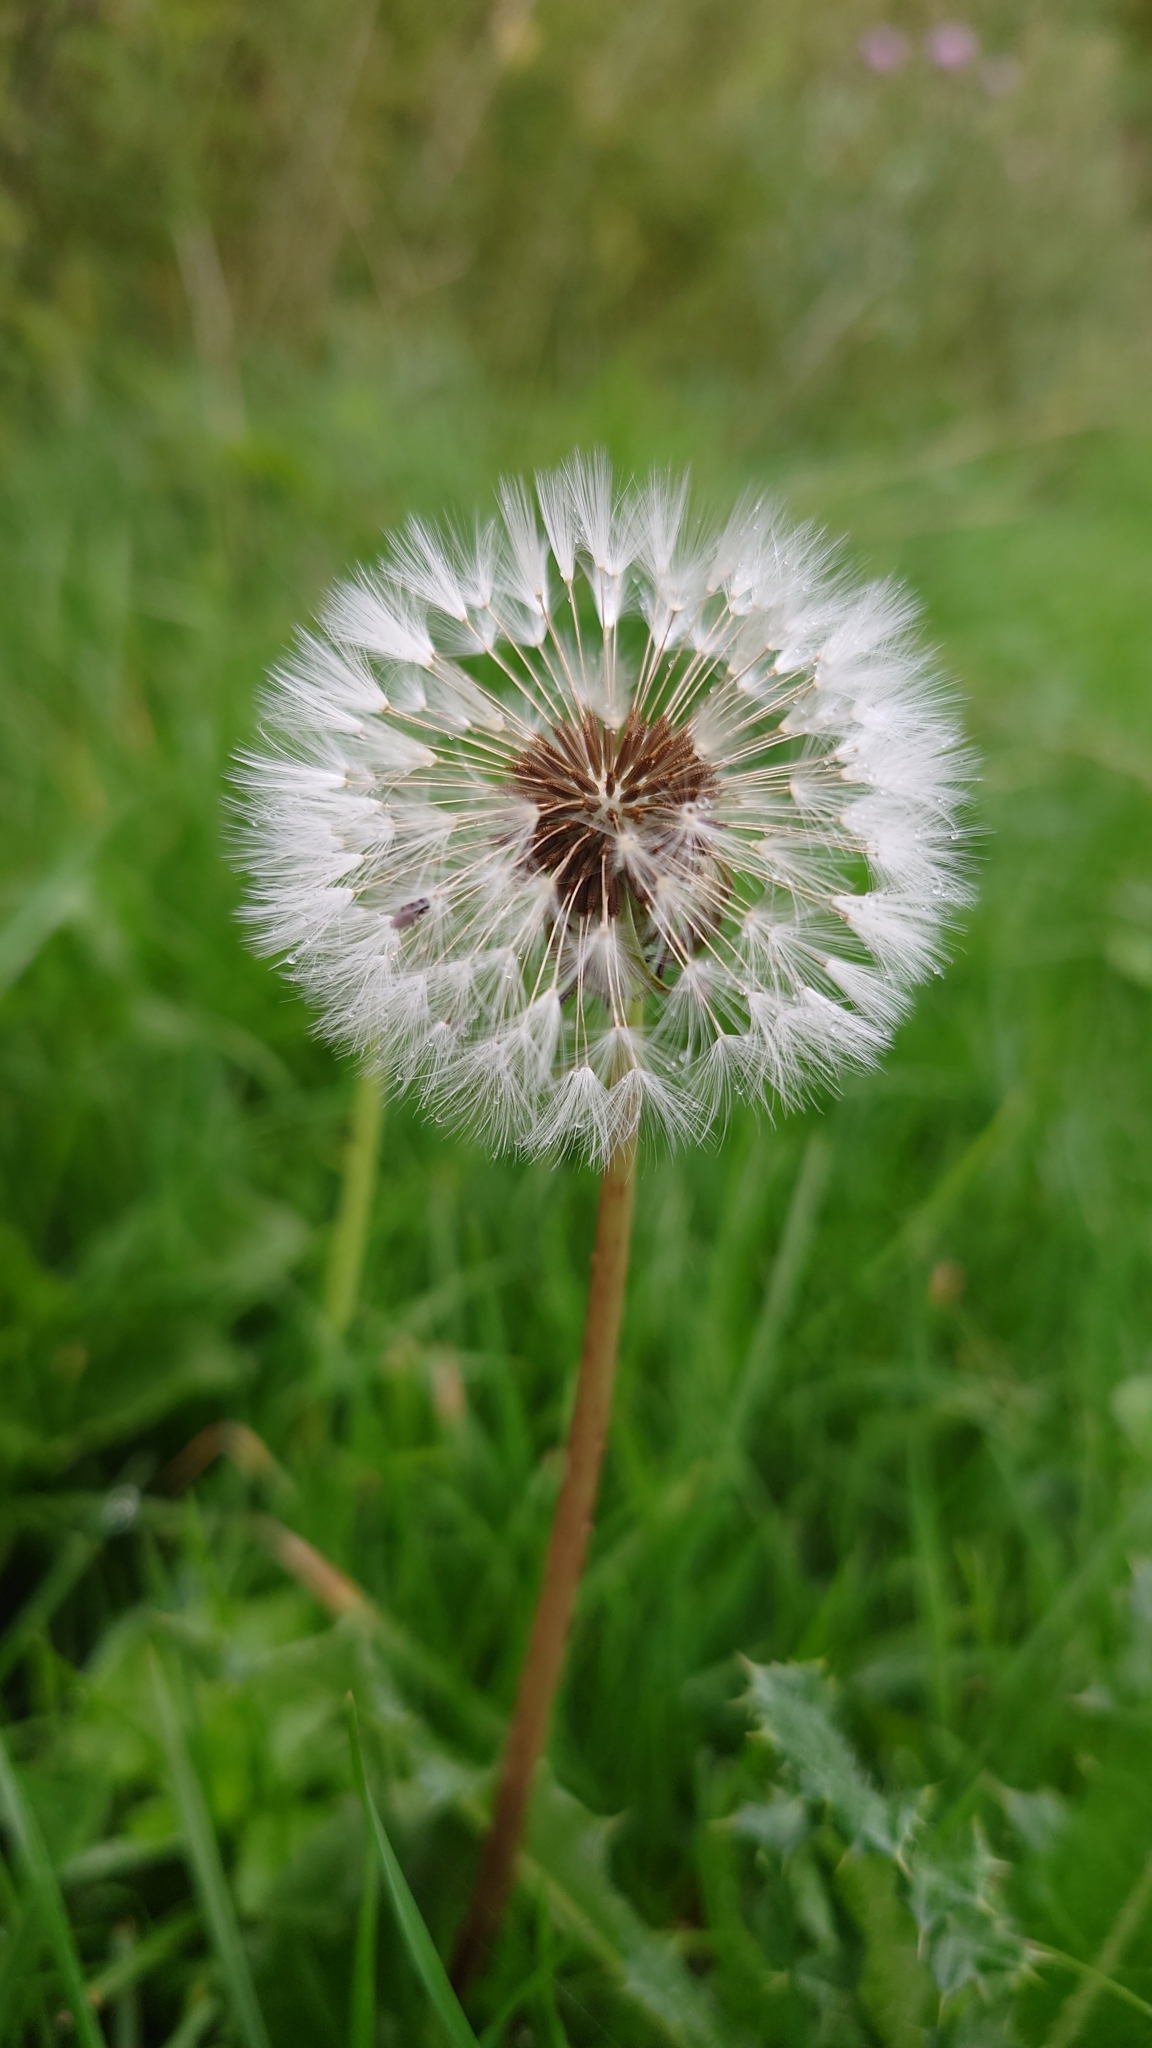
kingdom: Plantae
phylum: Tracheophyta
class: Magnoliopsida
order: Asterales
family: Asteraceae
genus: Taraxacum
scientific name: Taraxacum officinale
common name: Common dandelion
